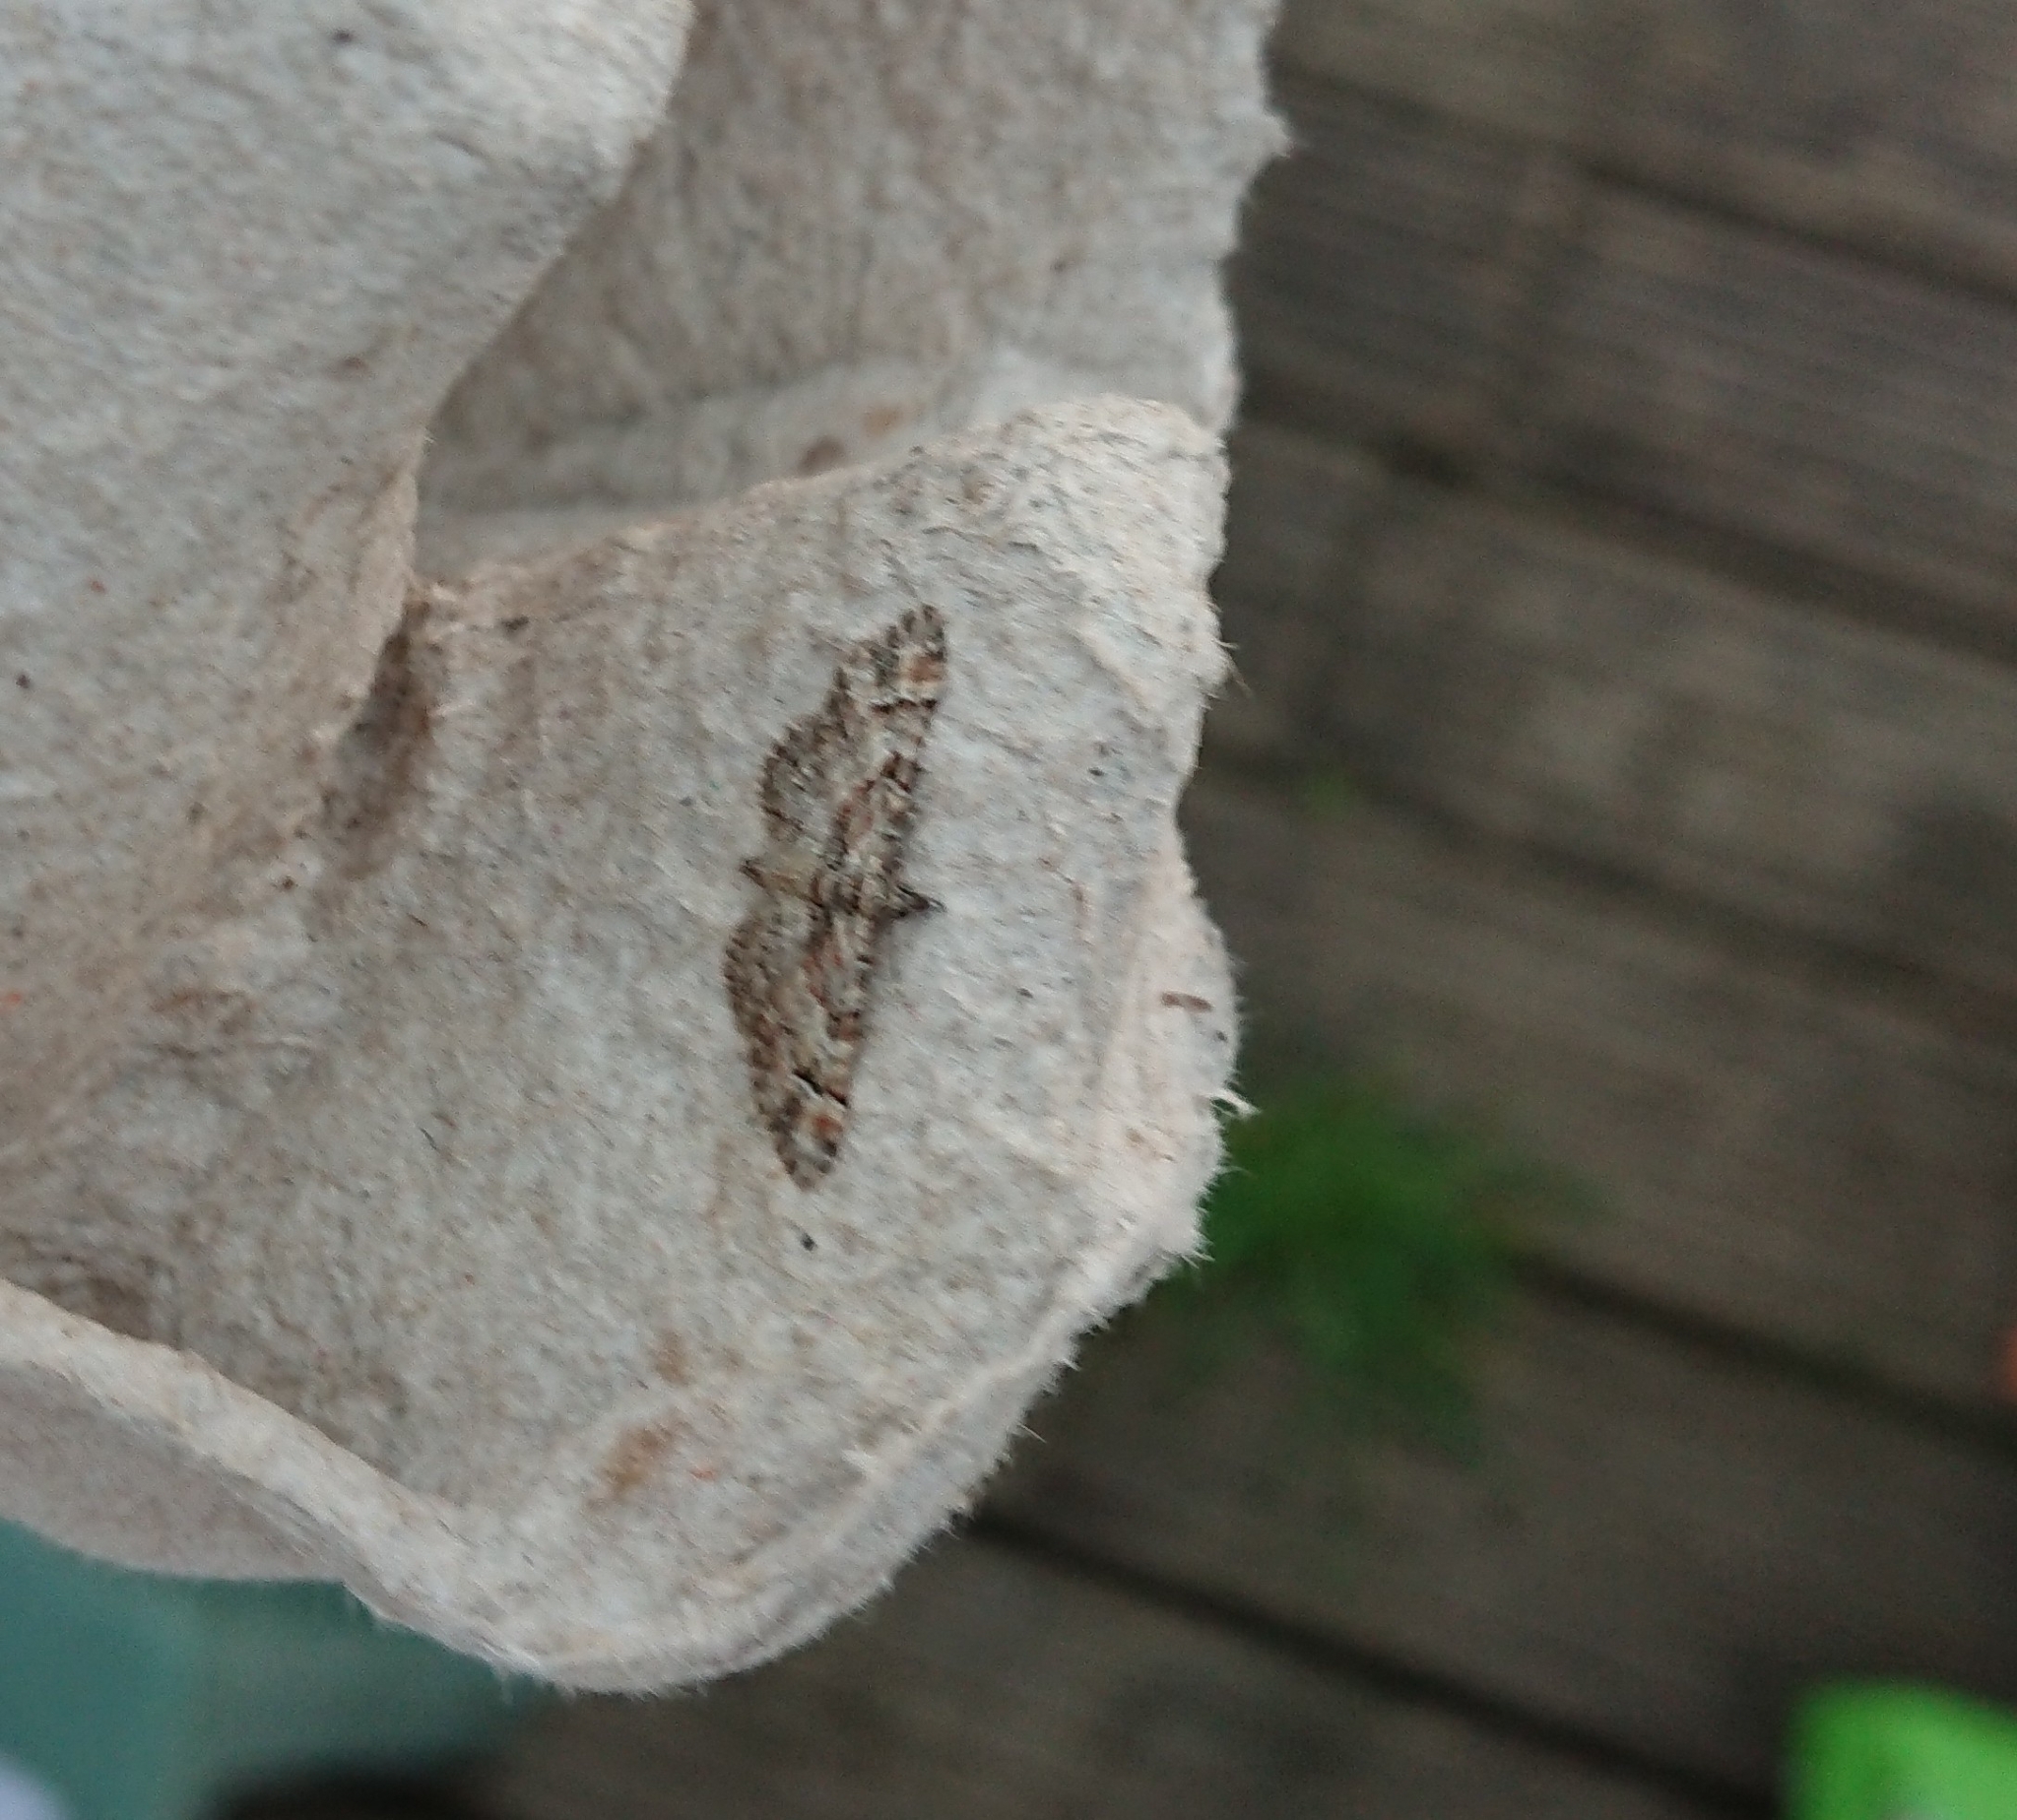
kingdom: Animalia
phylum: Arthropoda
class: Insecta
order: Lepidoptera
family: Geometridae
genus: Gymnoscelis
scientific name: Gymnoscelis rufifasciata
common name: Double-striped pug
